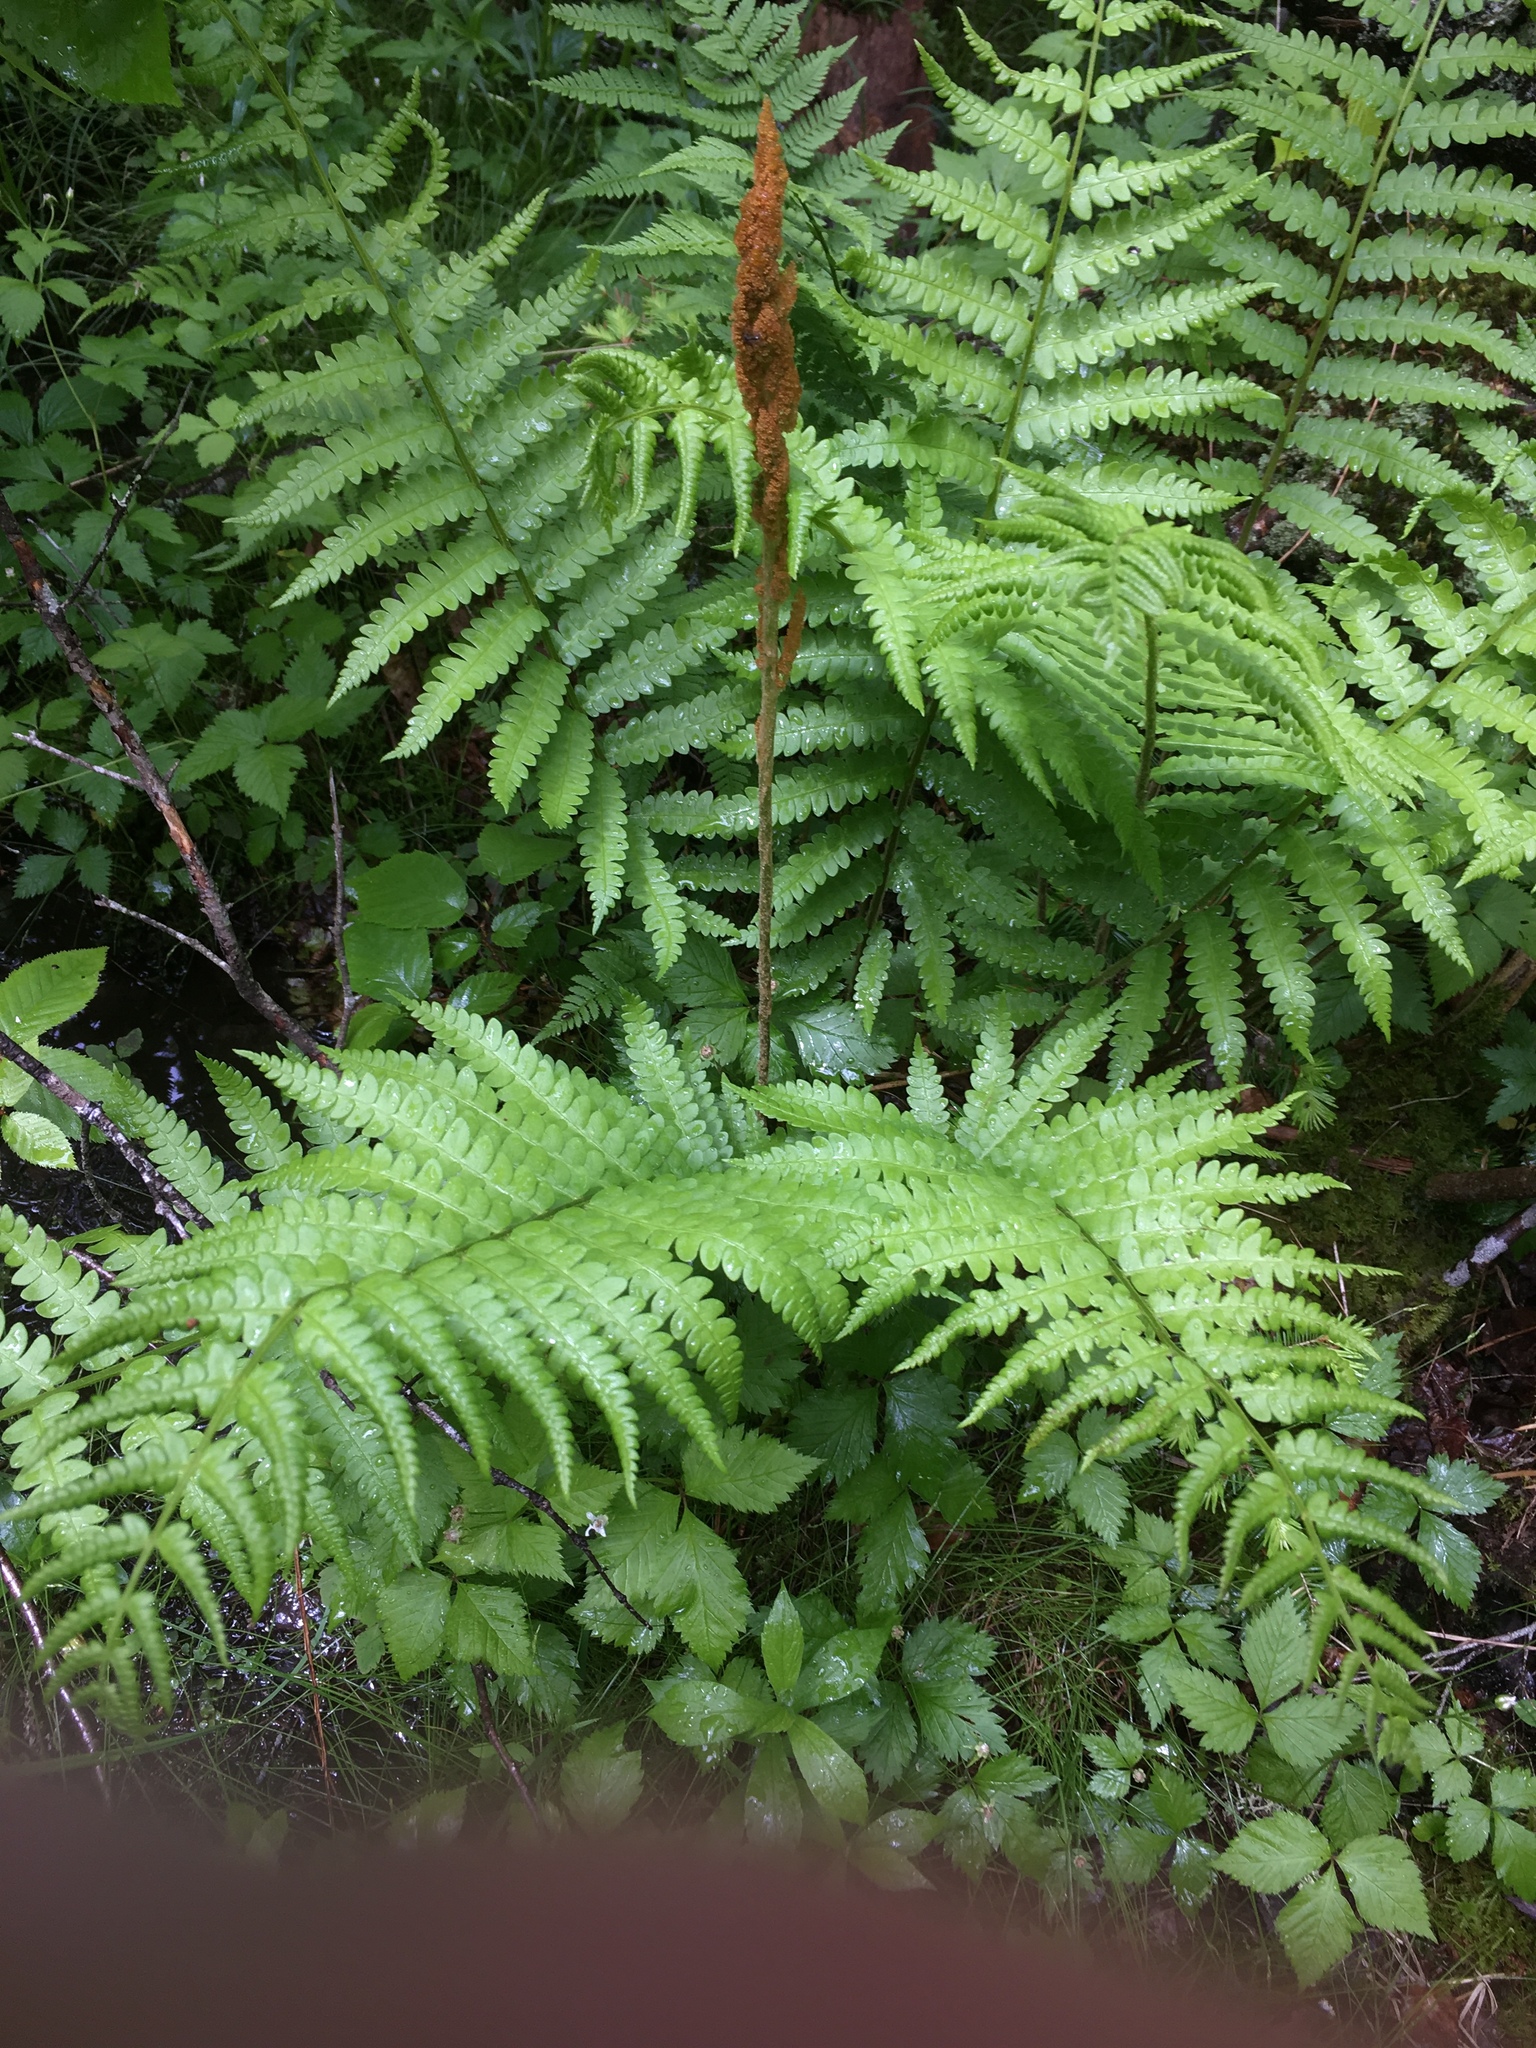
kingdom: Plantae
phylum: Tracheophyta
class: Polypodiopsida
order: Osmundales
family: Osmundaceae
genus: Osmundastrum
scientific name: Osmundastrum cinnamomeum
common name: Cinnamon fern
